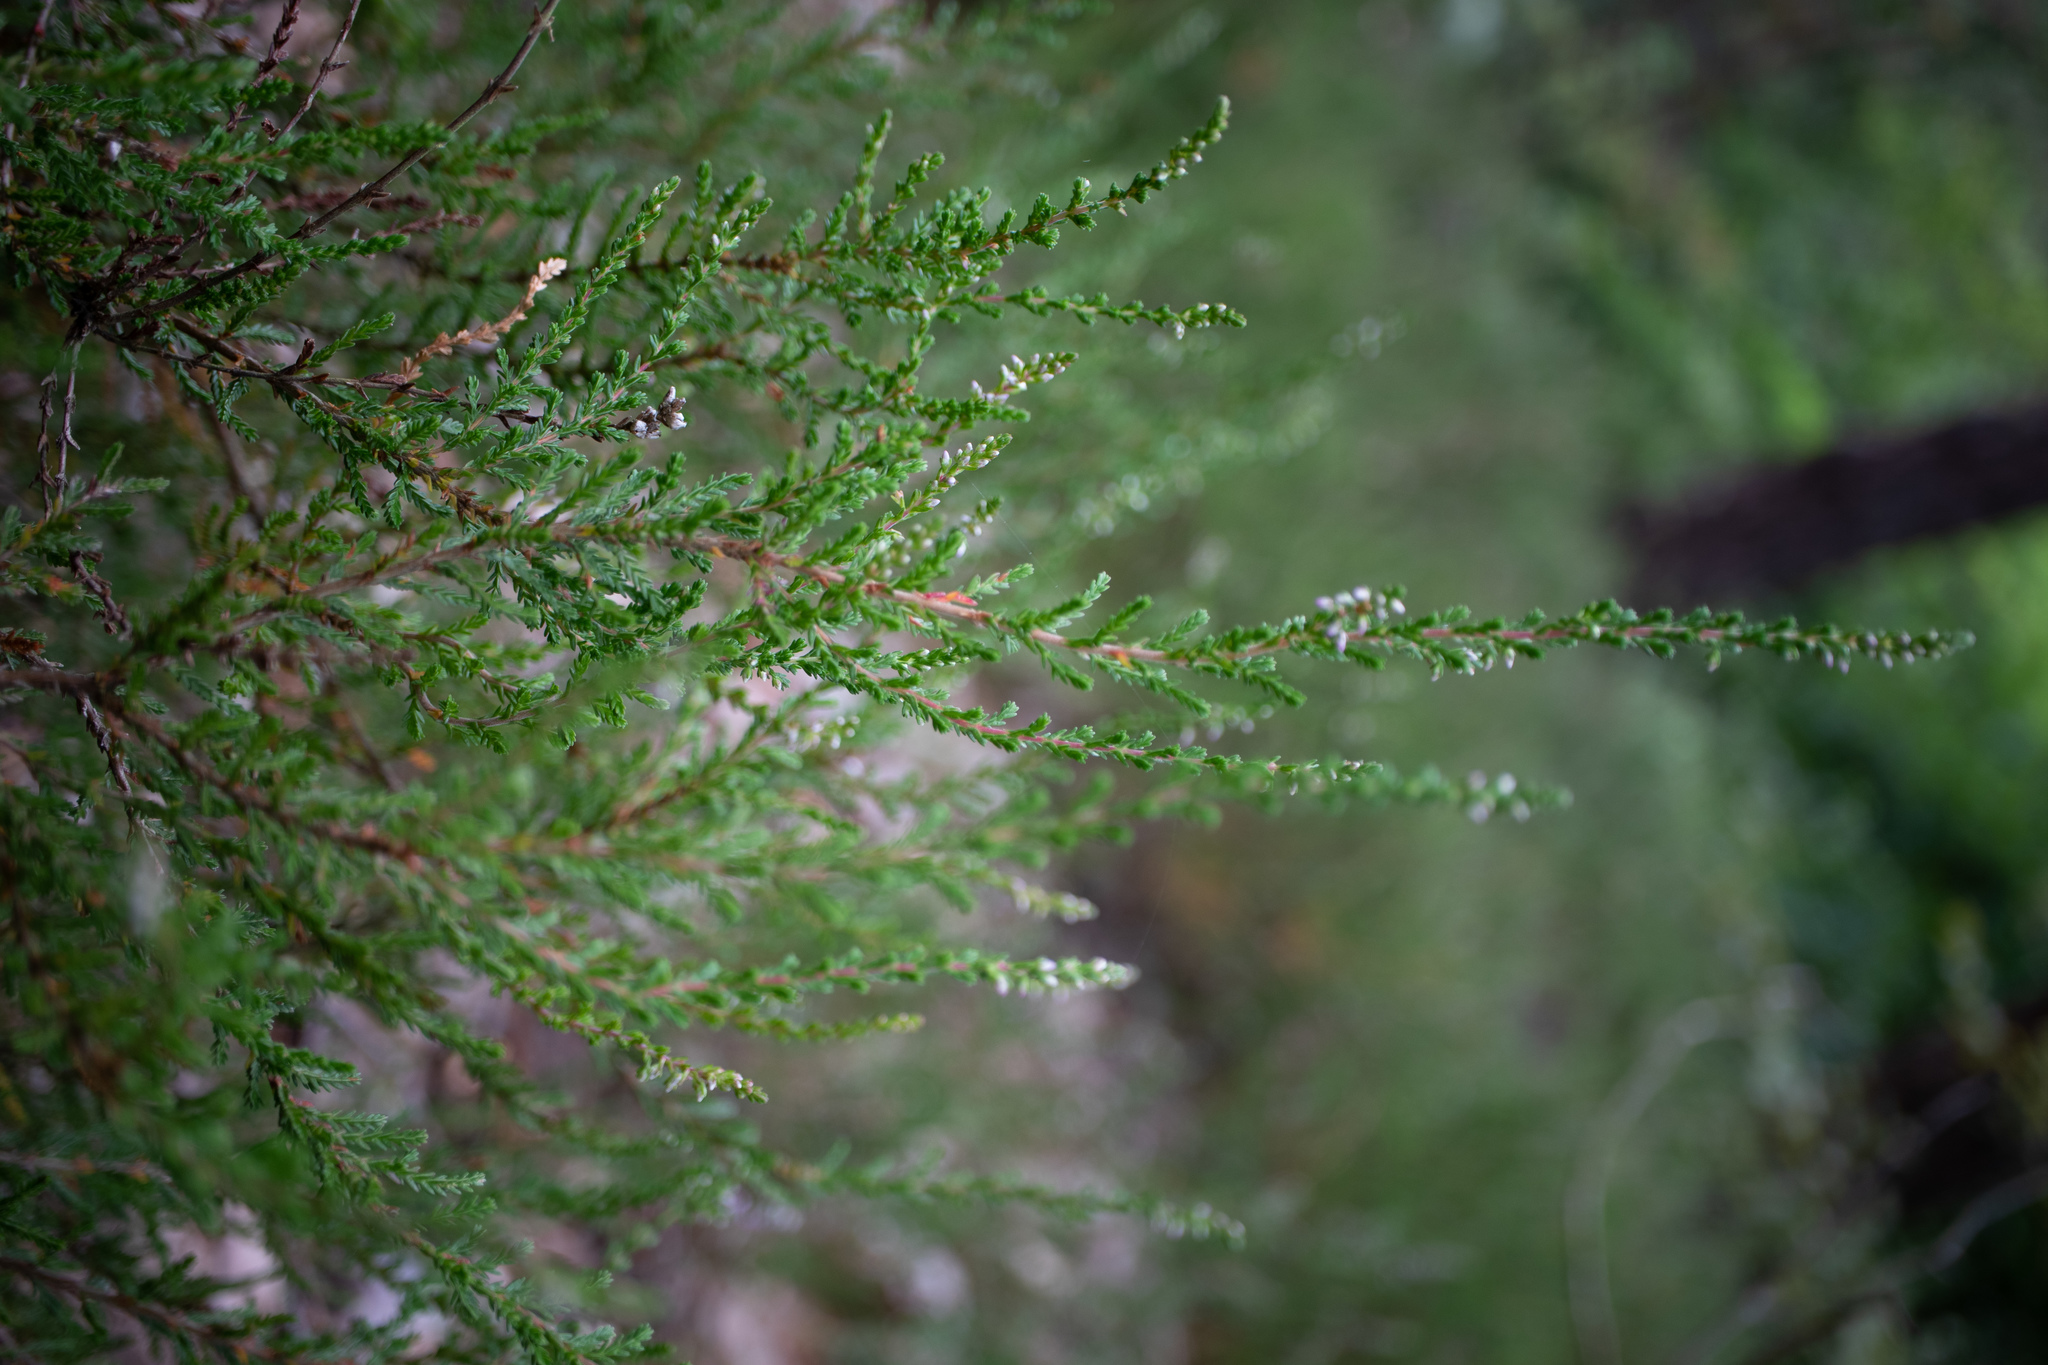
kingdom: Plantae
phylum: Tracheophyta
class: Magnoliopsida
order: Ericales
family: Ericaceae
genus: Calluna
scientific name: Calluna vulgaris
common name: Heather
